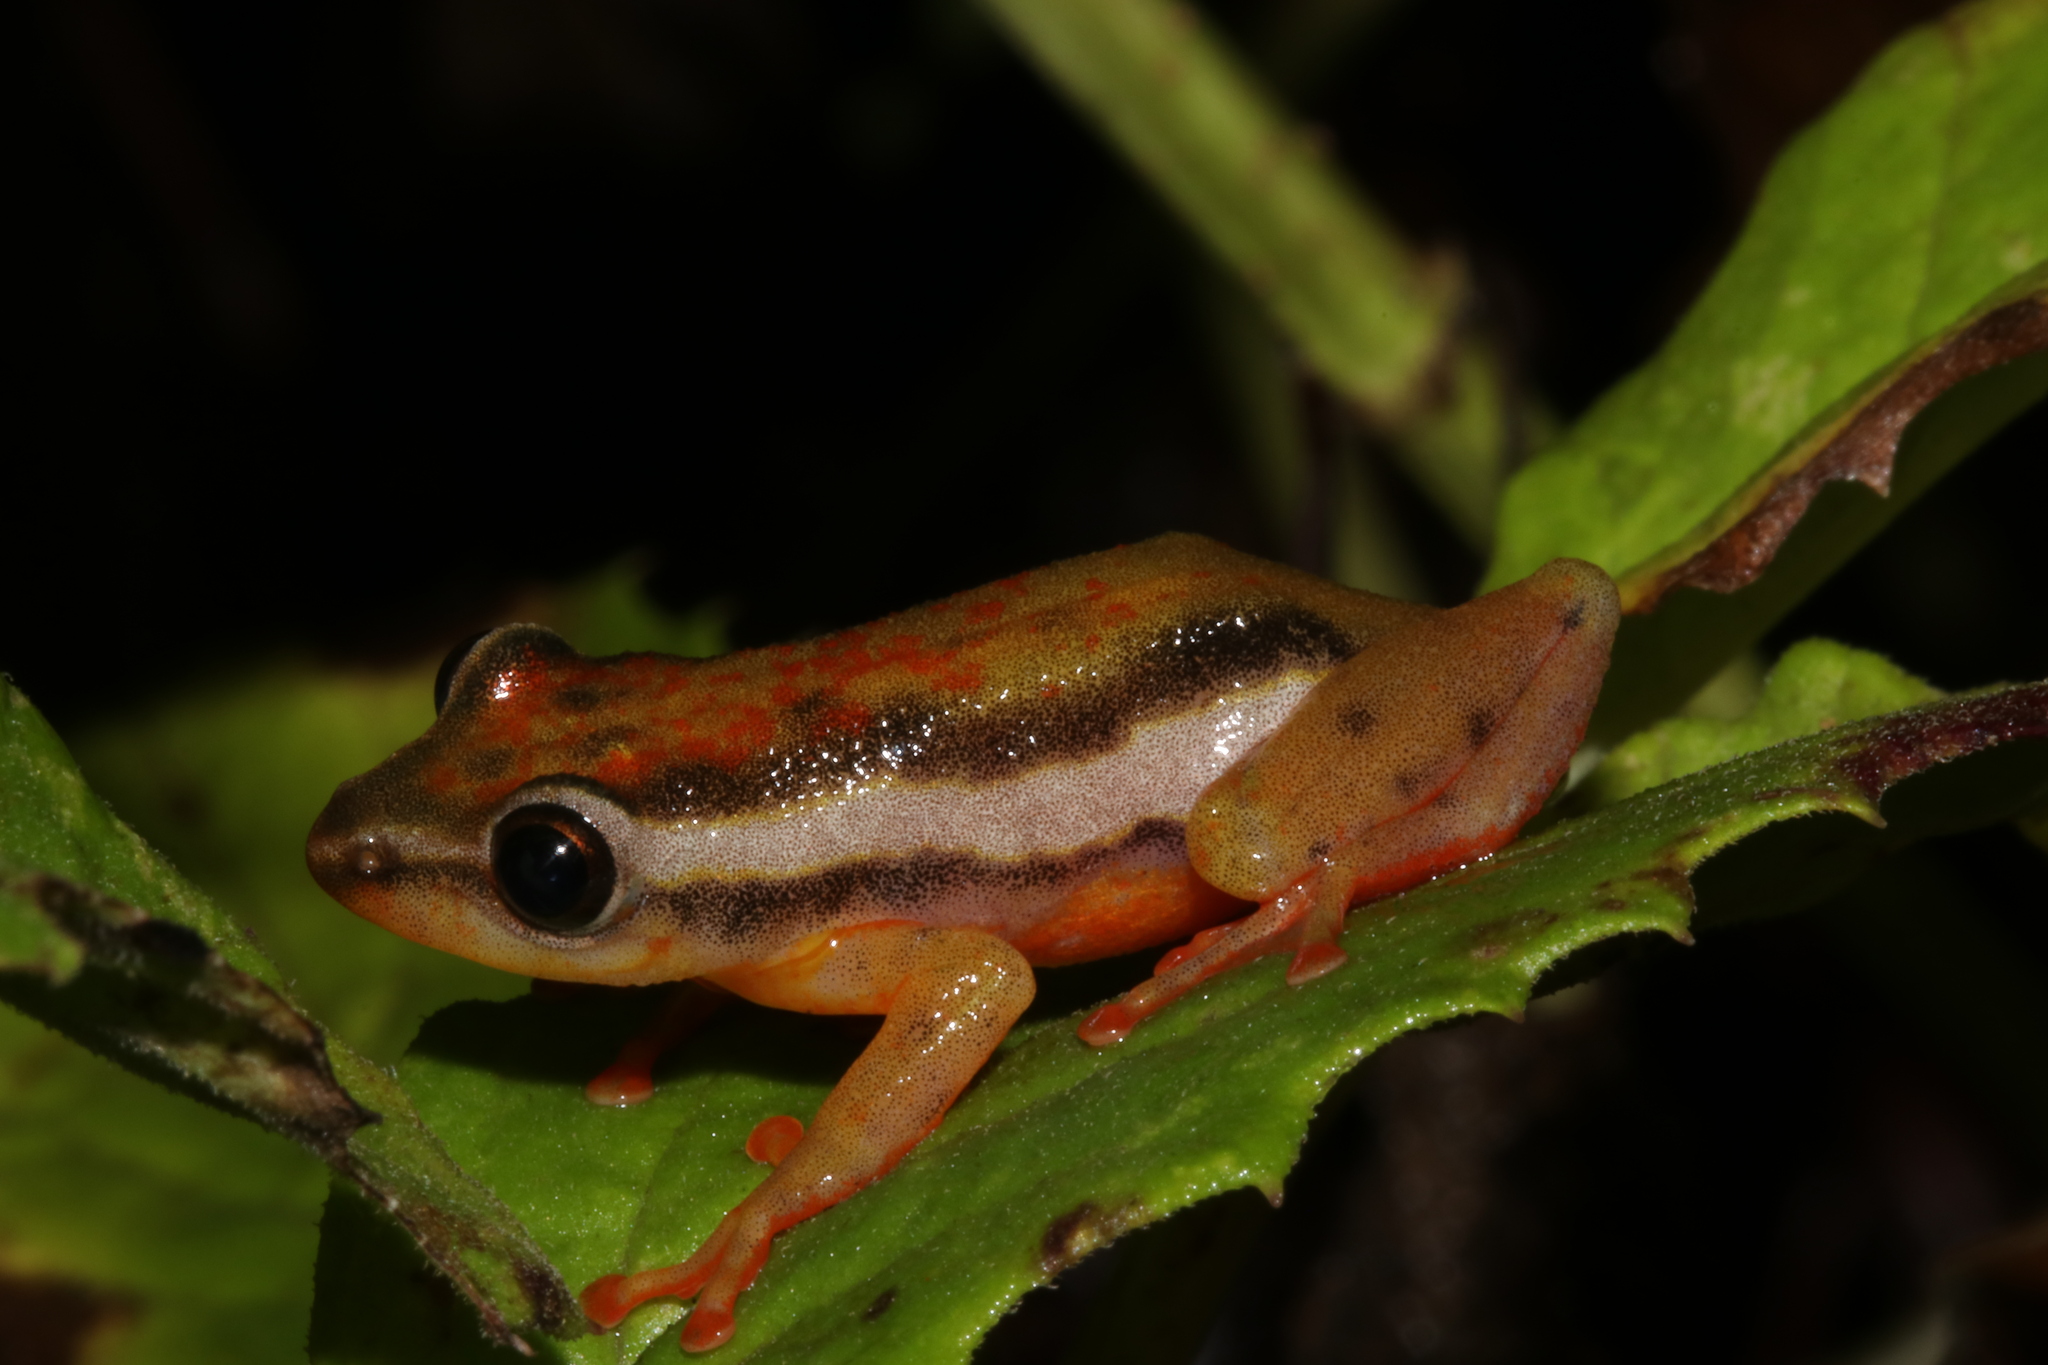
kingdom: Animalia
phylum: Chordata
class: Amphibia
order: Anura
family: Hyperoliidae
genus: Hyperolius
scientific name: Hyperolius mitchelli
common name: Mitchell's reed frog
